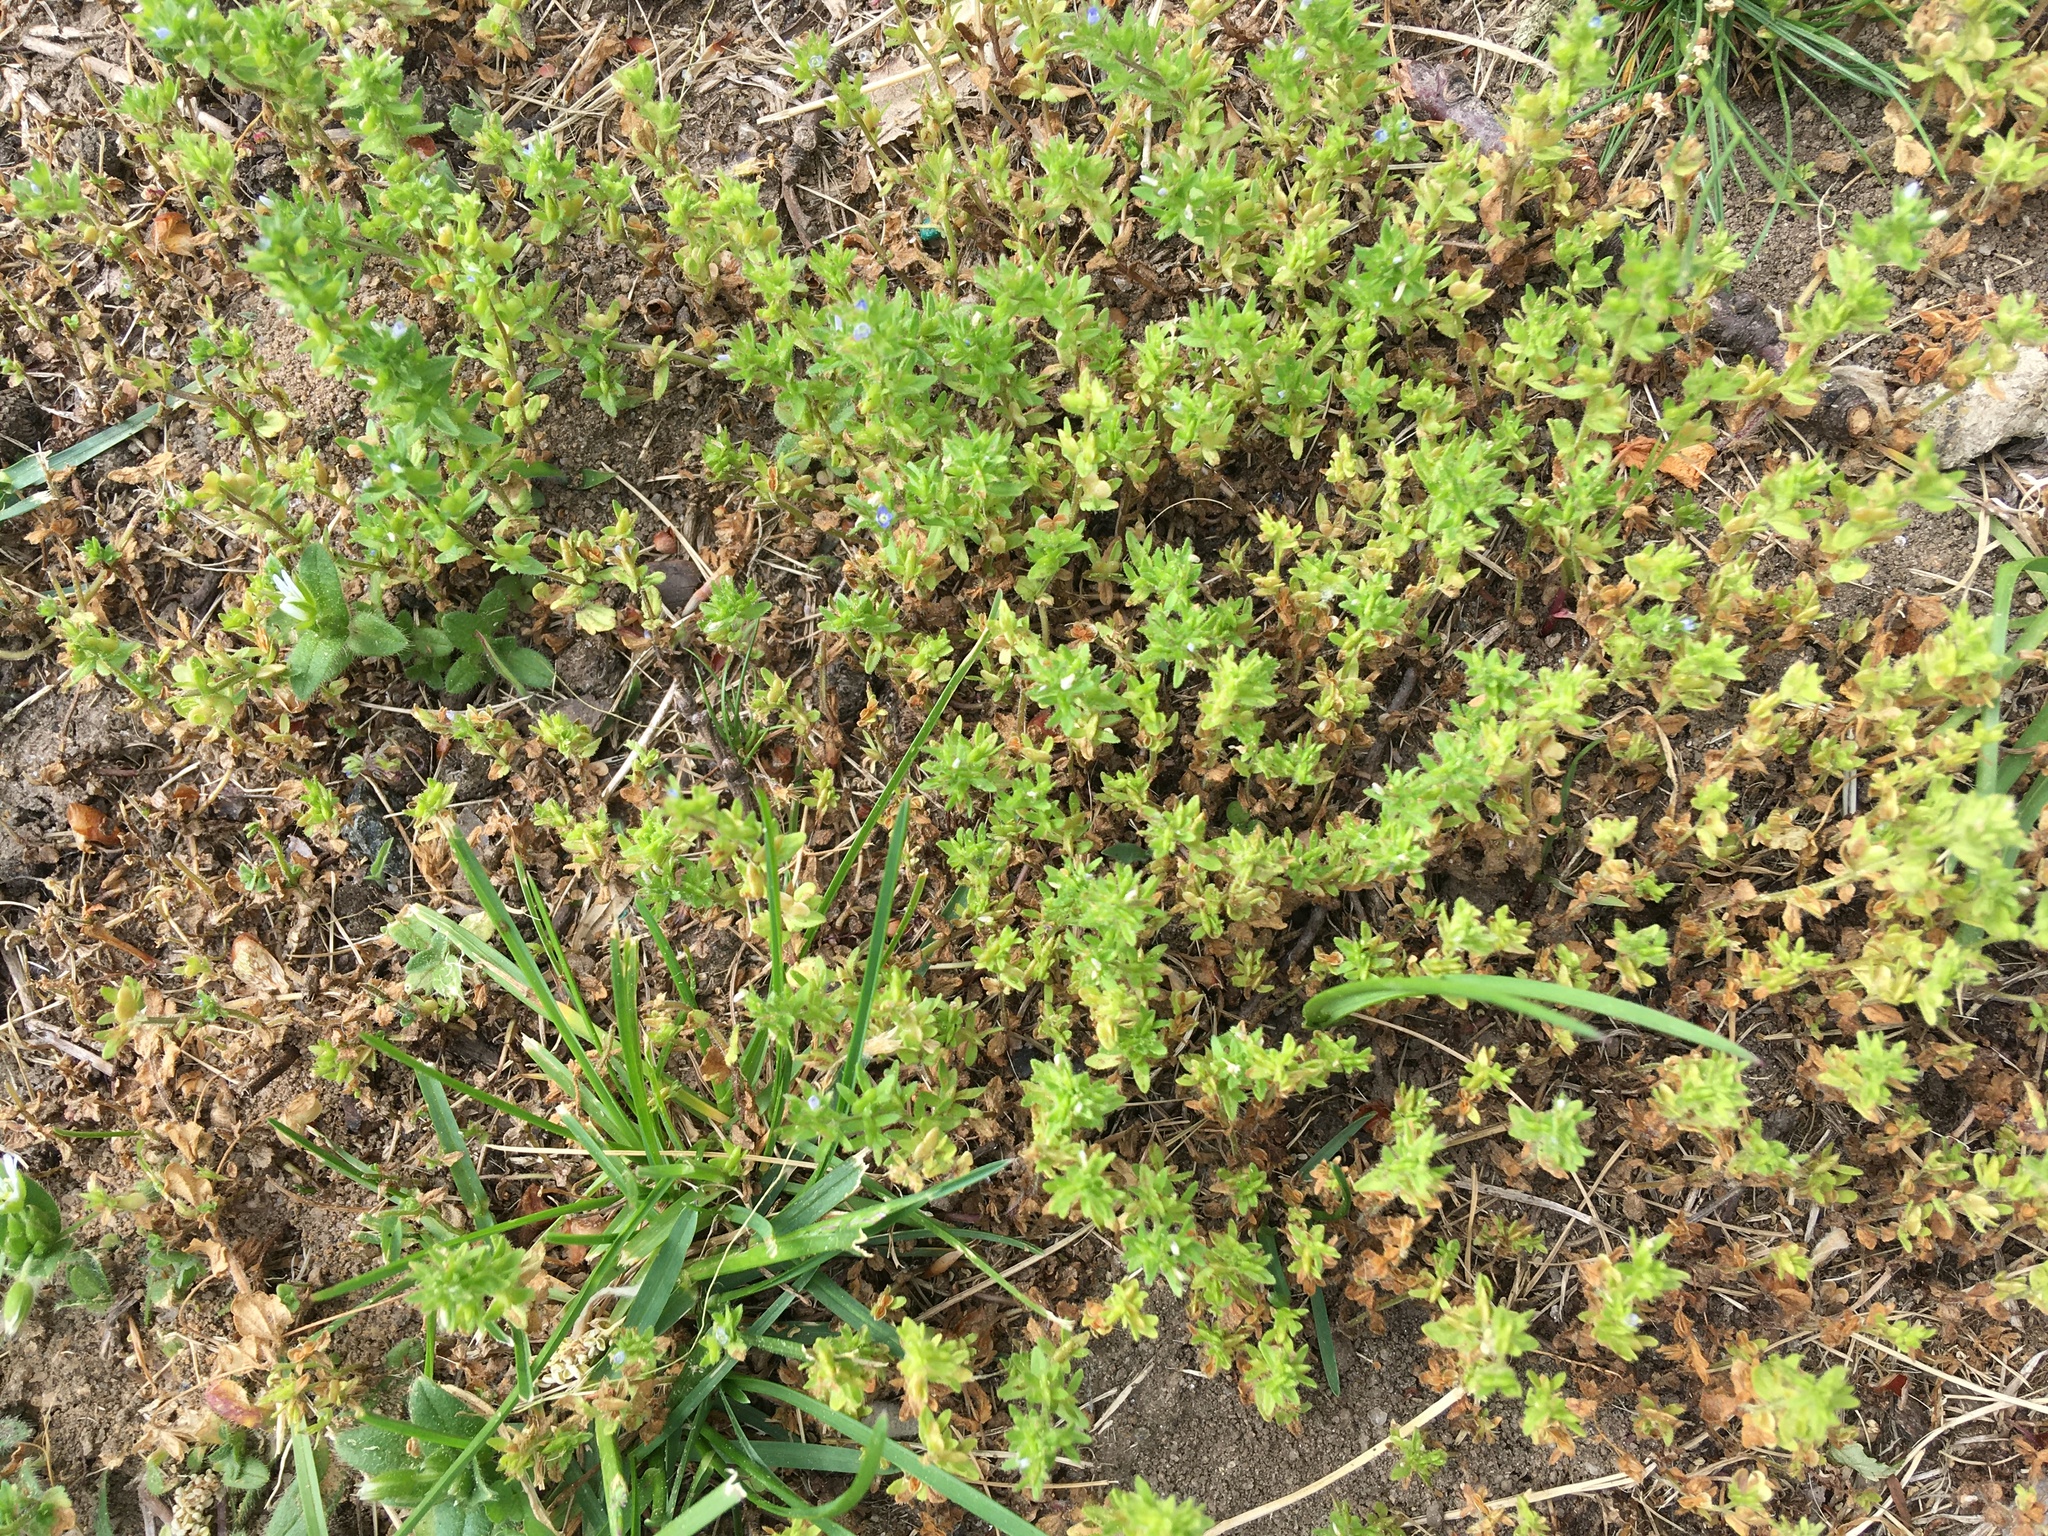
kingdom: Plantae
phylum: Tracheophyta
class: Magnoliopsida
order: Lamiales
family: Plantaginaceae
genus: Veronica
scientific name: Veronica arvensis
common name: Corn speedwell
